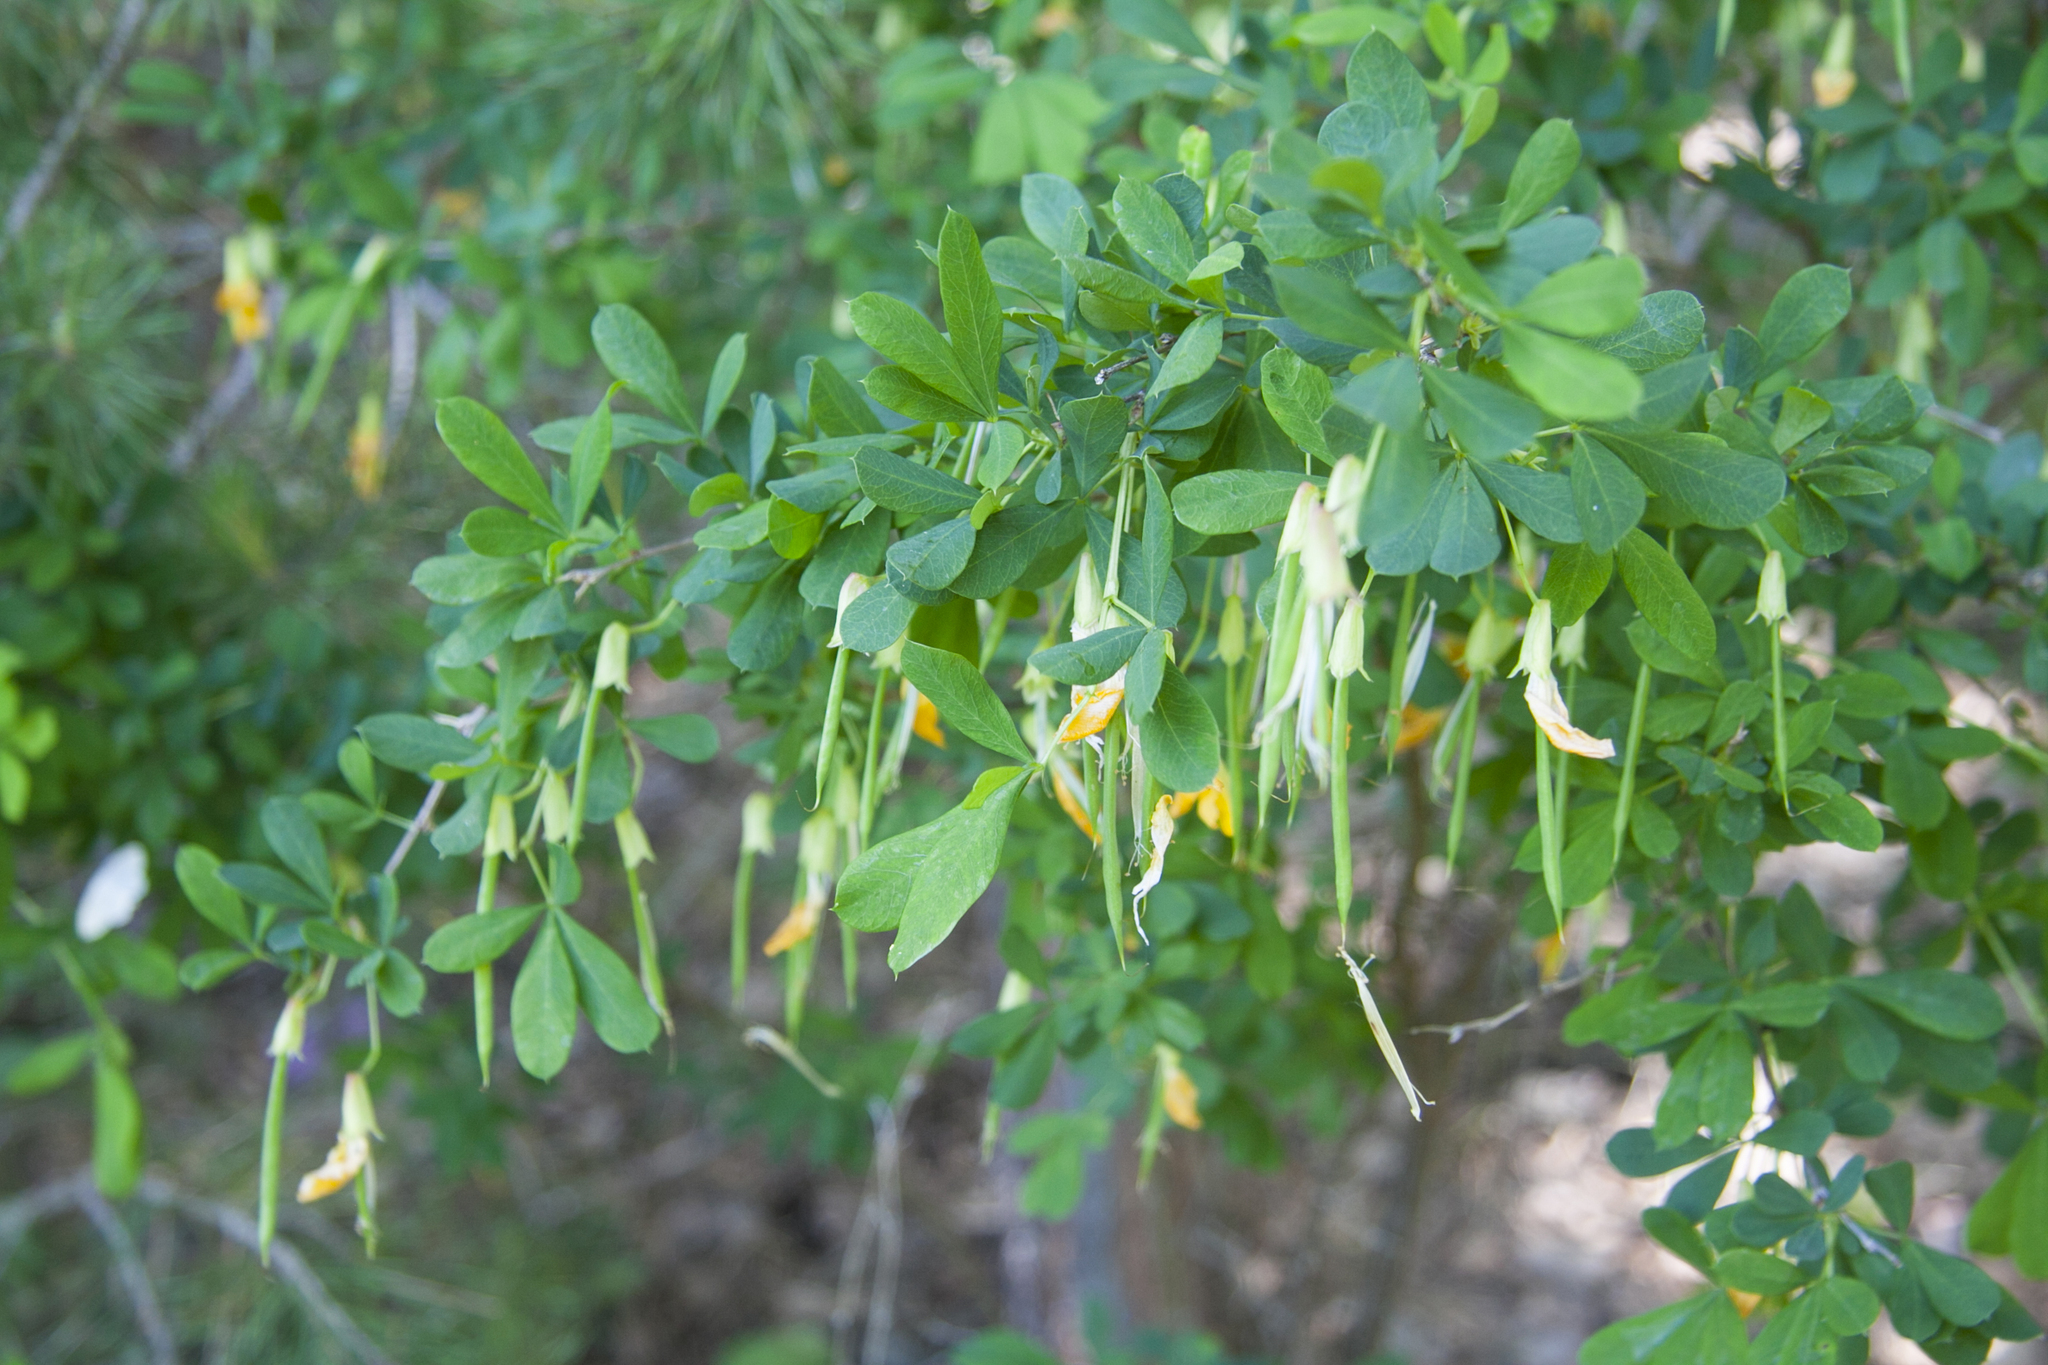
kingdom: Plantae
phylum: Tracheophyta
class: Magnoliopsida
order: Fabales
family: Fabaceae
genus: Caragana
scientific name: Caragana frutex
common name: Russian peashrub
